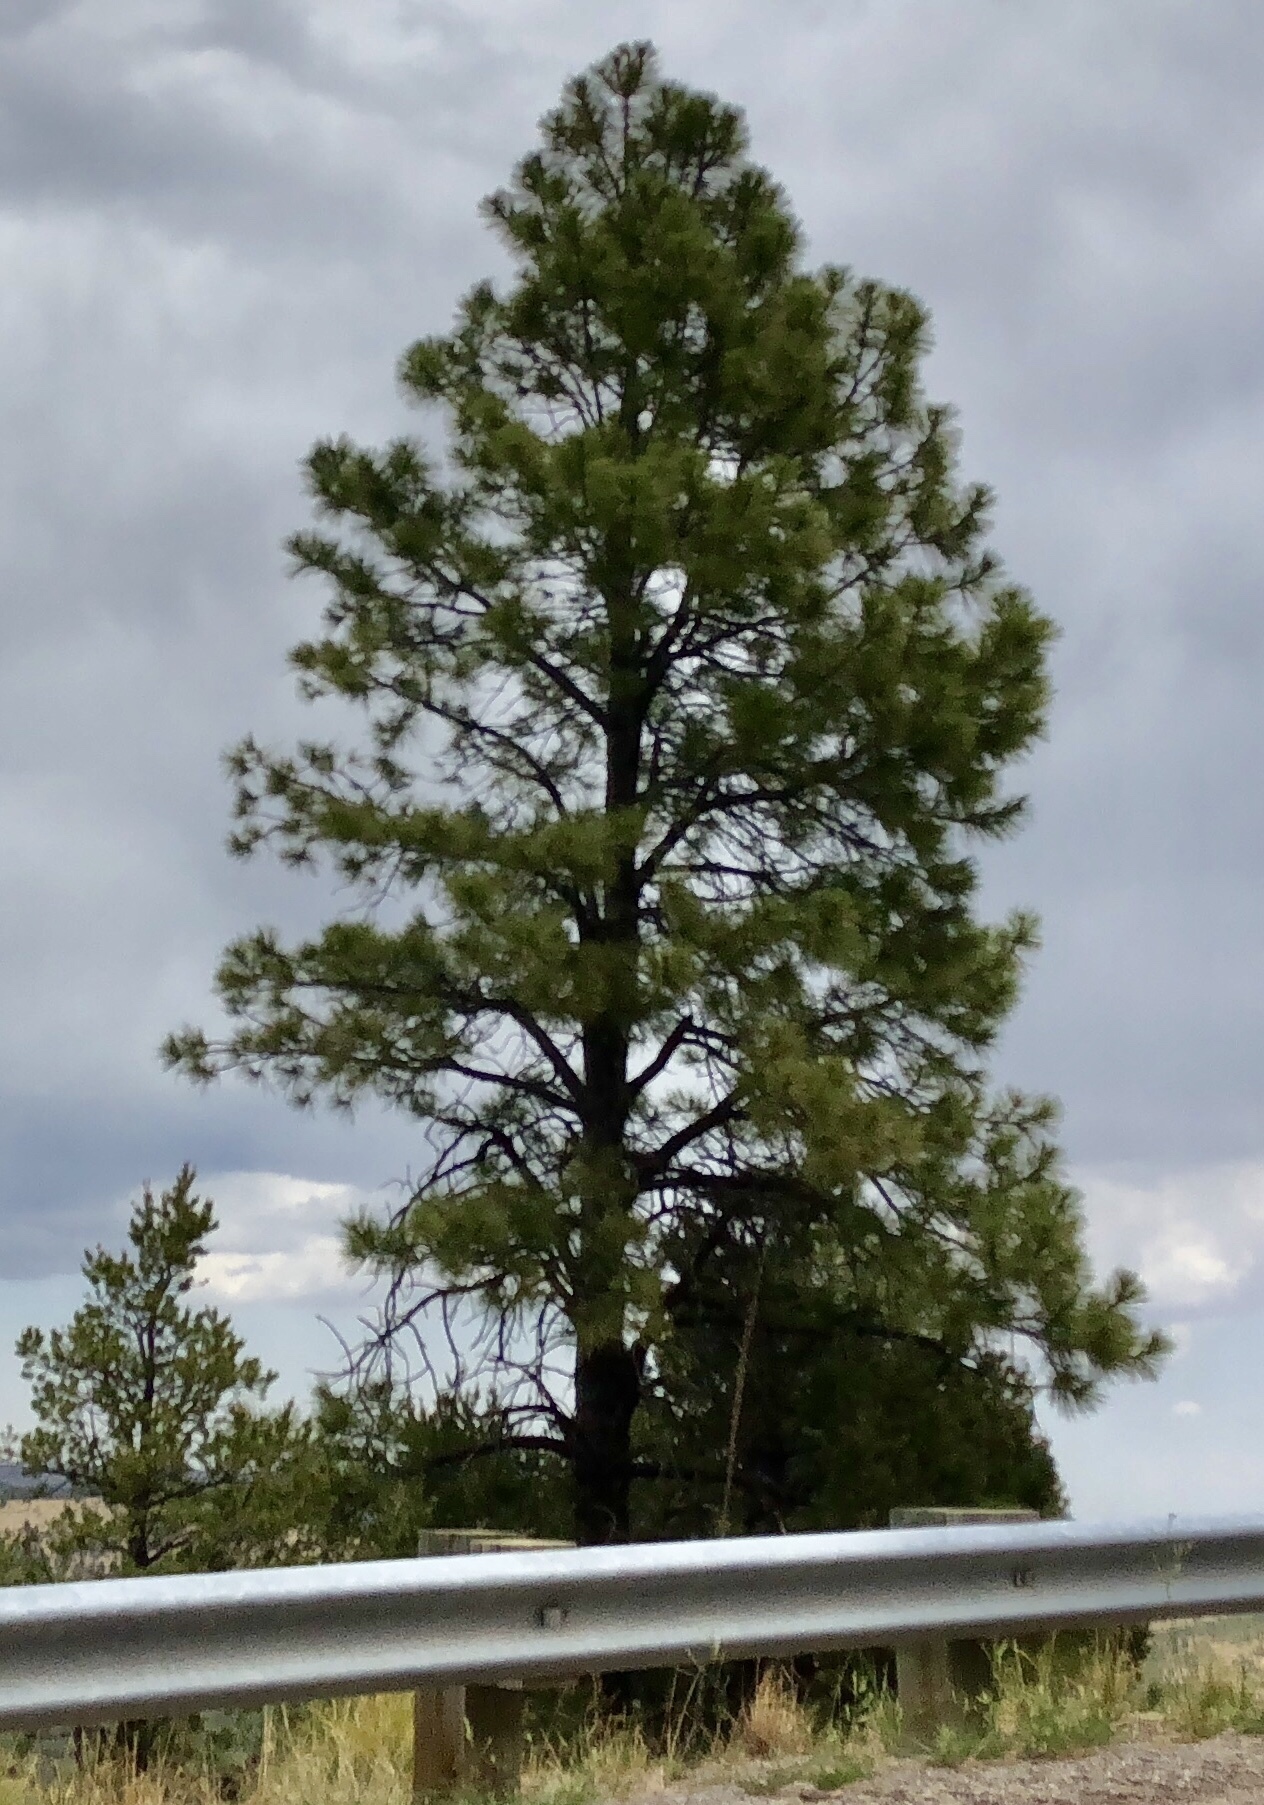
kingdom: Plantae
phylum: Tracheophyta
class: Pinopsida
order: Pinales
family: Pinaceae
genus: Pinus
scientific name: Pinus ponderosa
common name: Western yellow-pine
